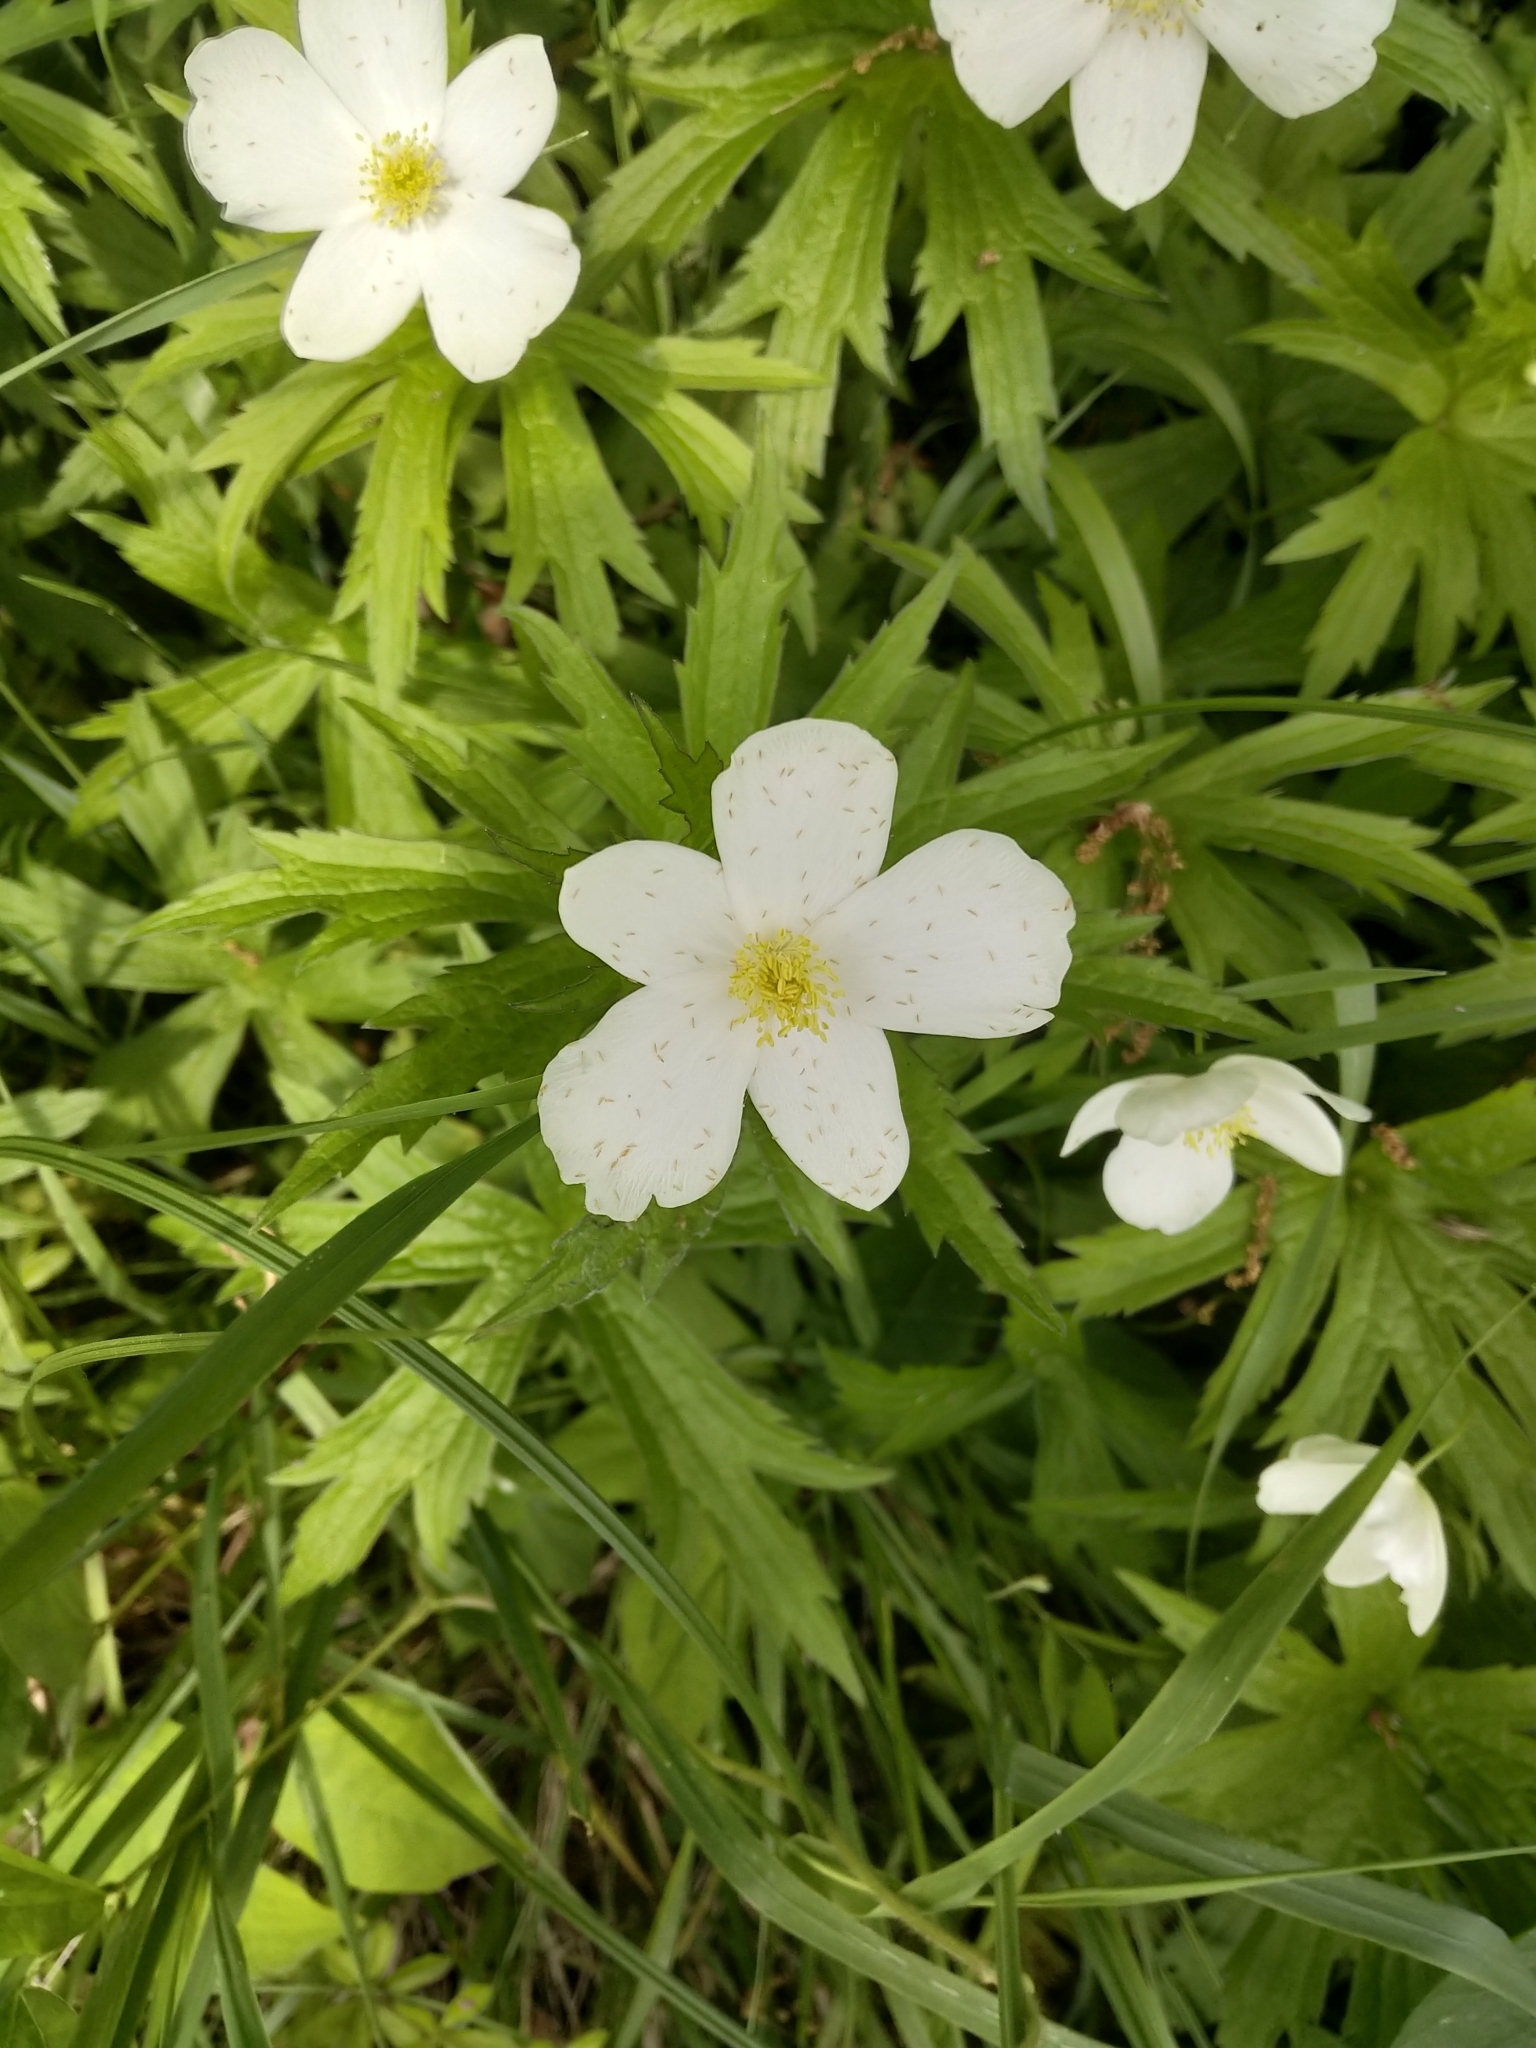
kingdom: Plantae
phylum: Tracheophyta
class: Magnoliopsida
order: Ranunculales
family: Ranunculaceae
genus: Anemonastrum
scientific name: Anemonastrum canadense
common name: Canada anemone
